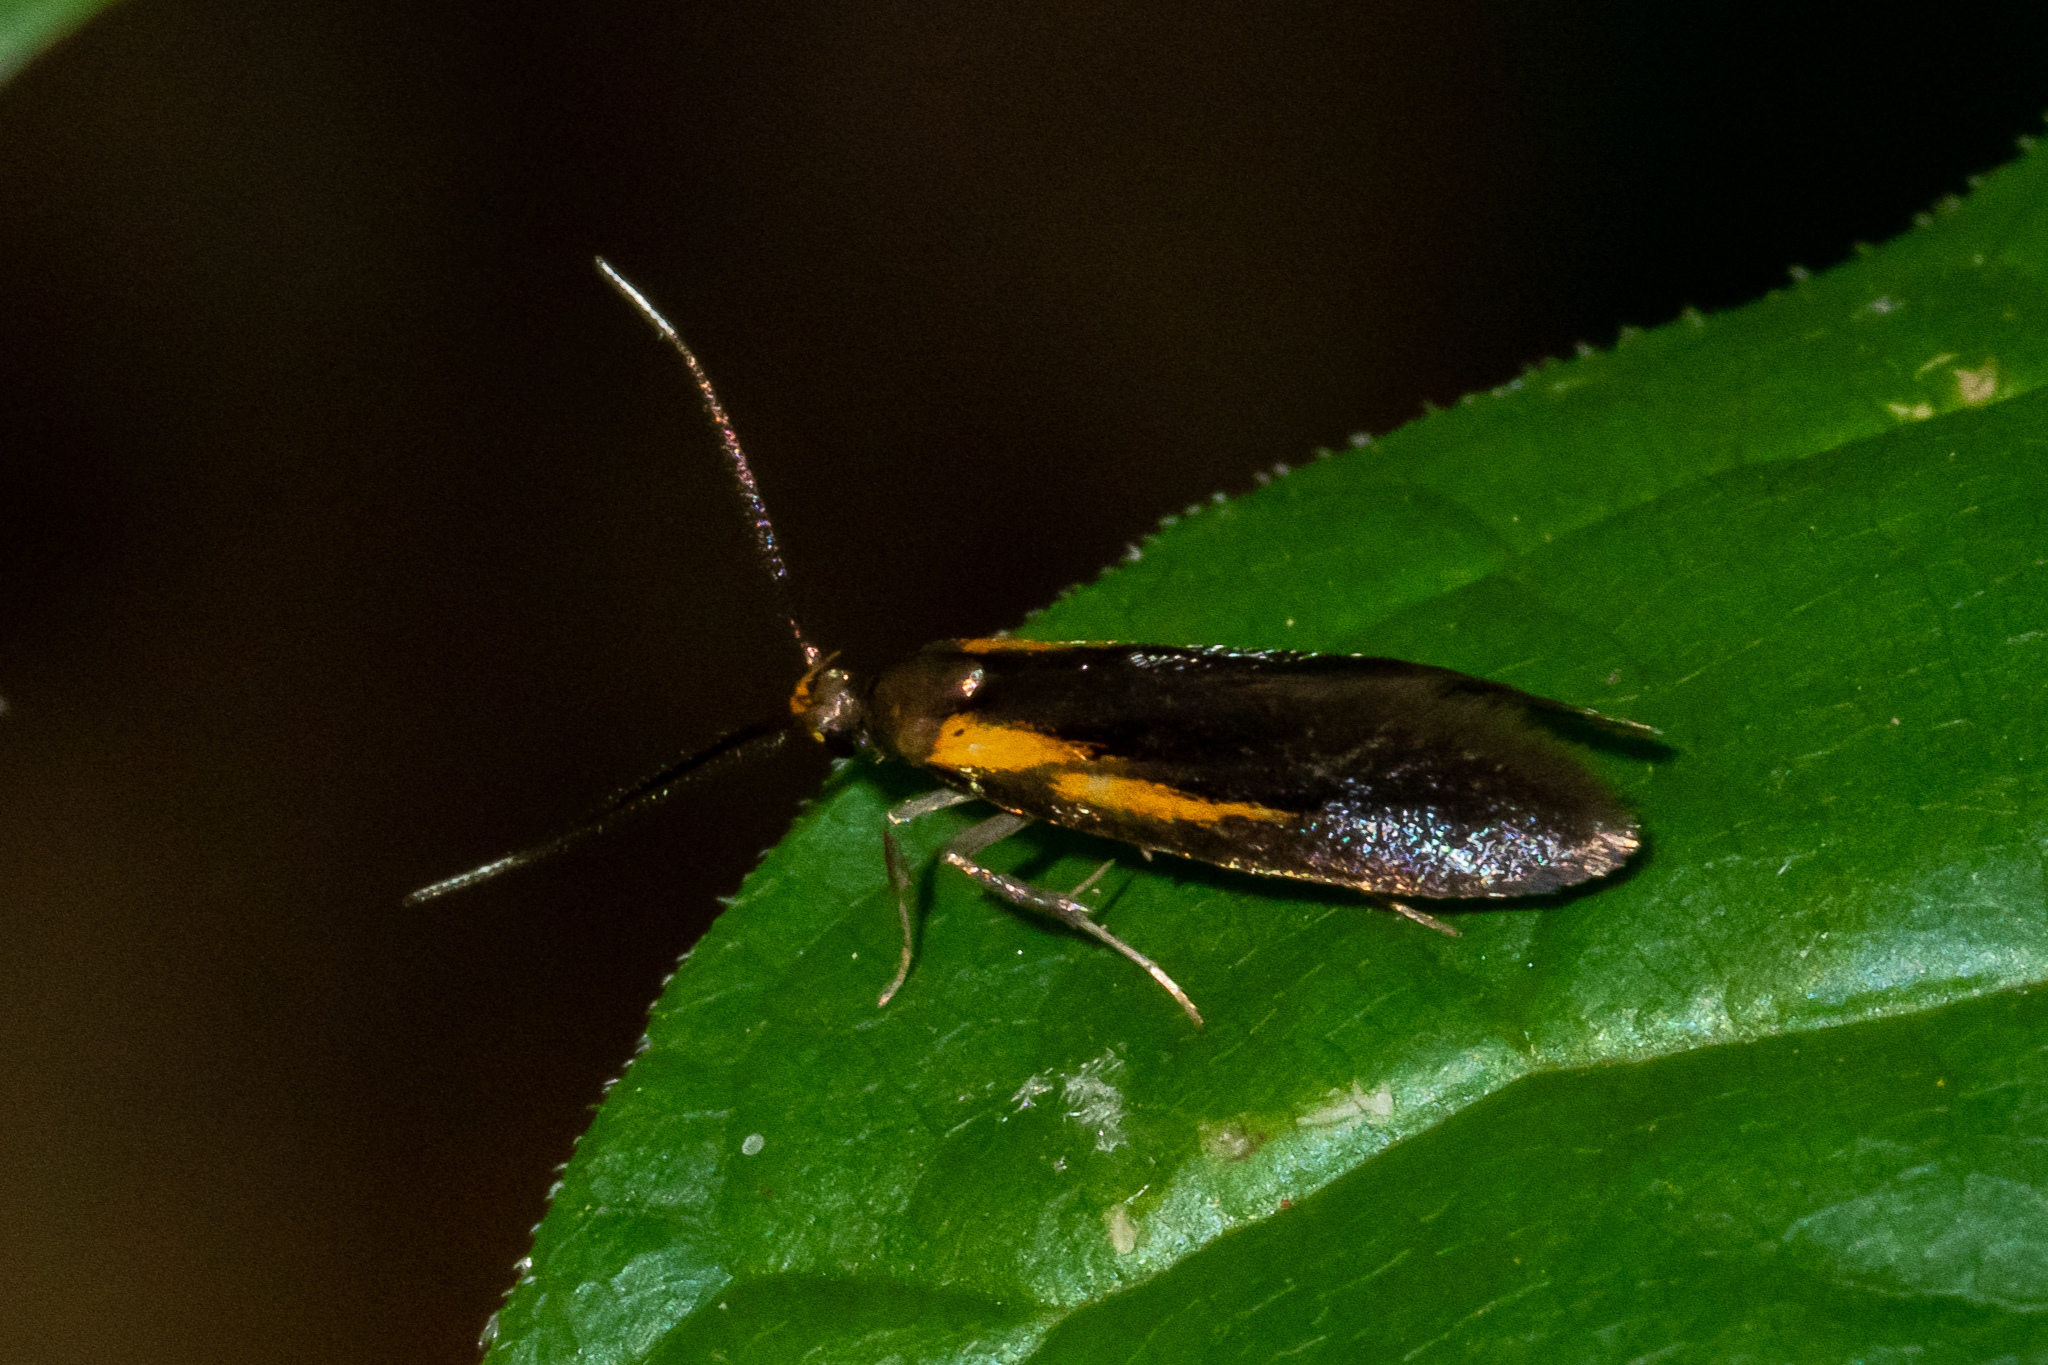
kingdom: Animalia
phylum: Arthropoda
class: Insecta
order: Lepidoptera
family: Oecophoridae
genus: Mathildana
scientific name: Mathildana newmanella
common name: Newman's mathildana moth
